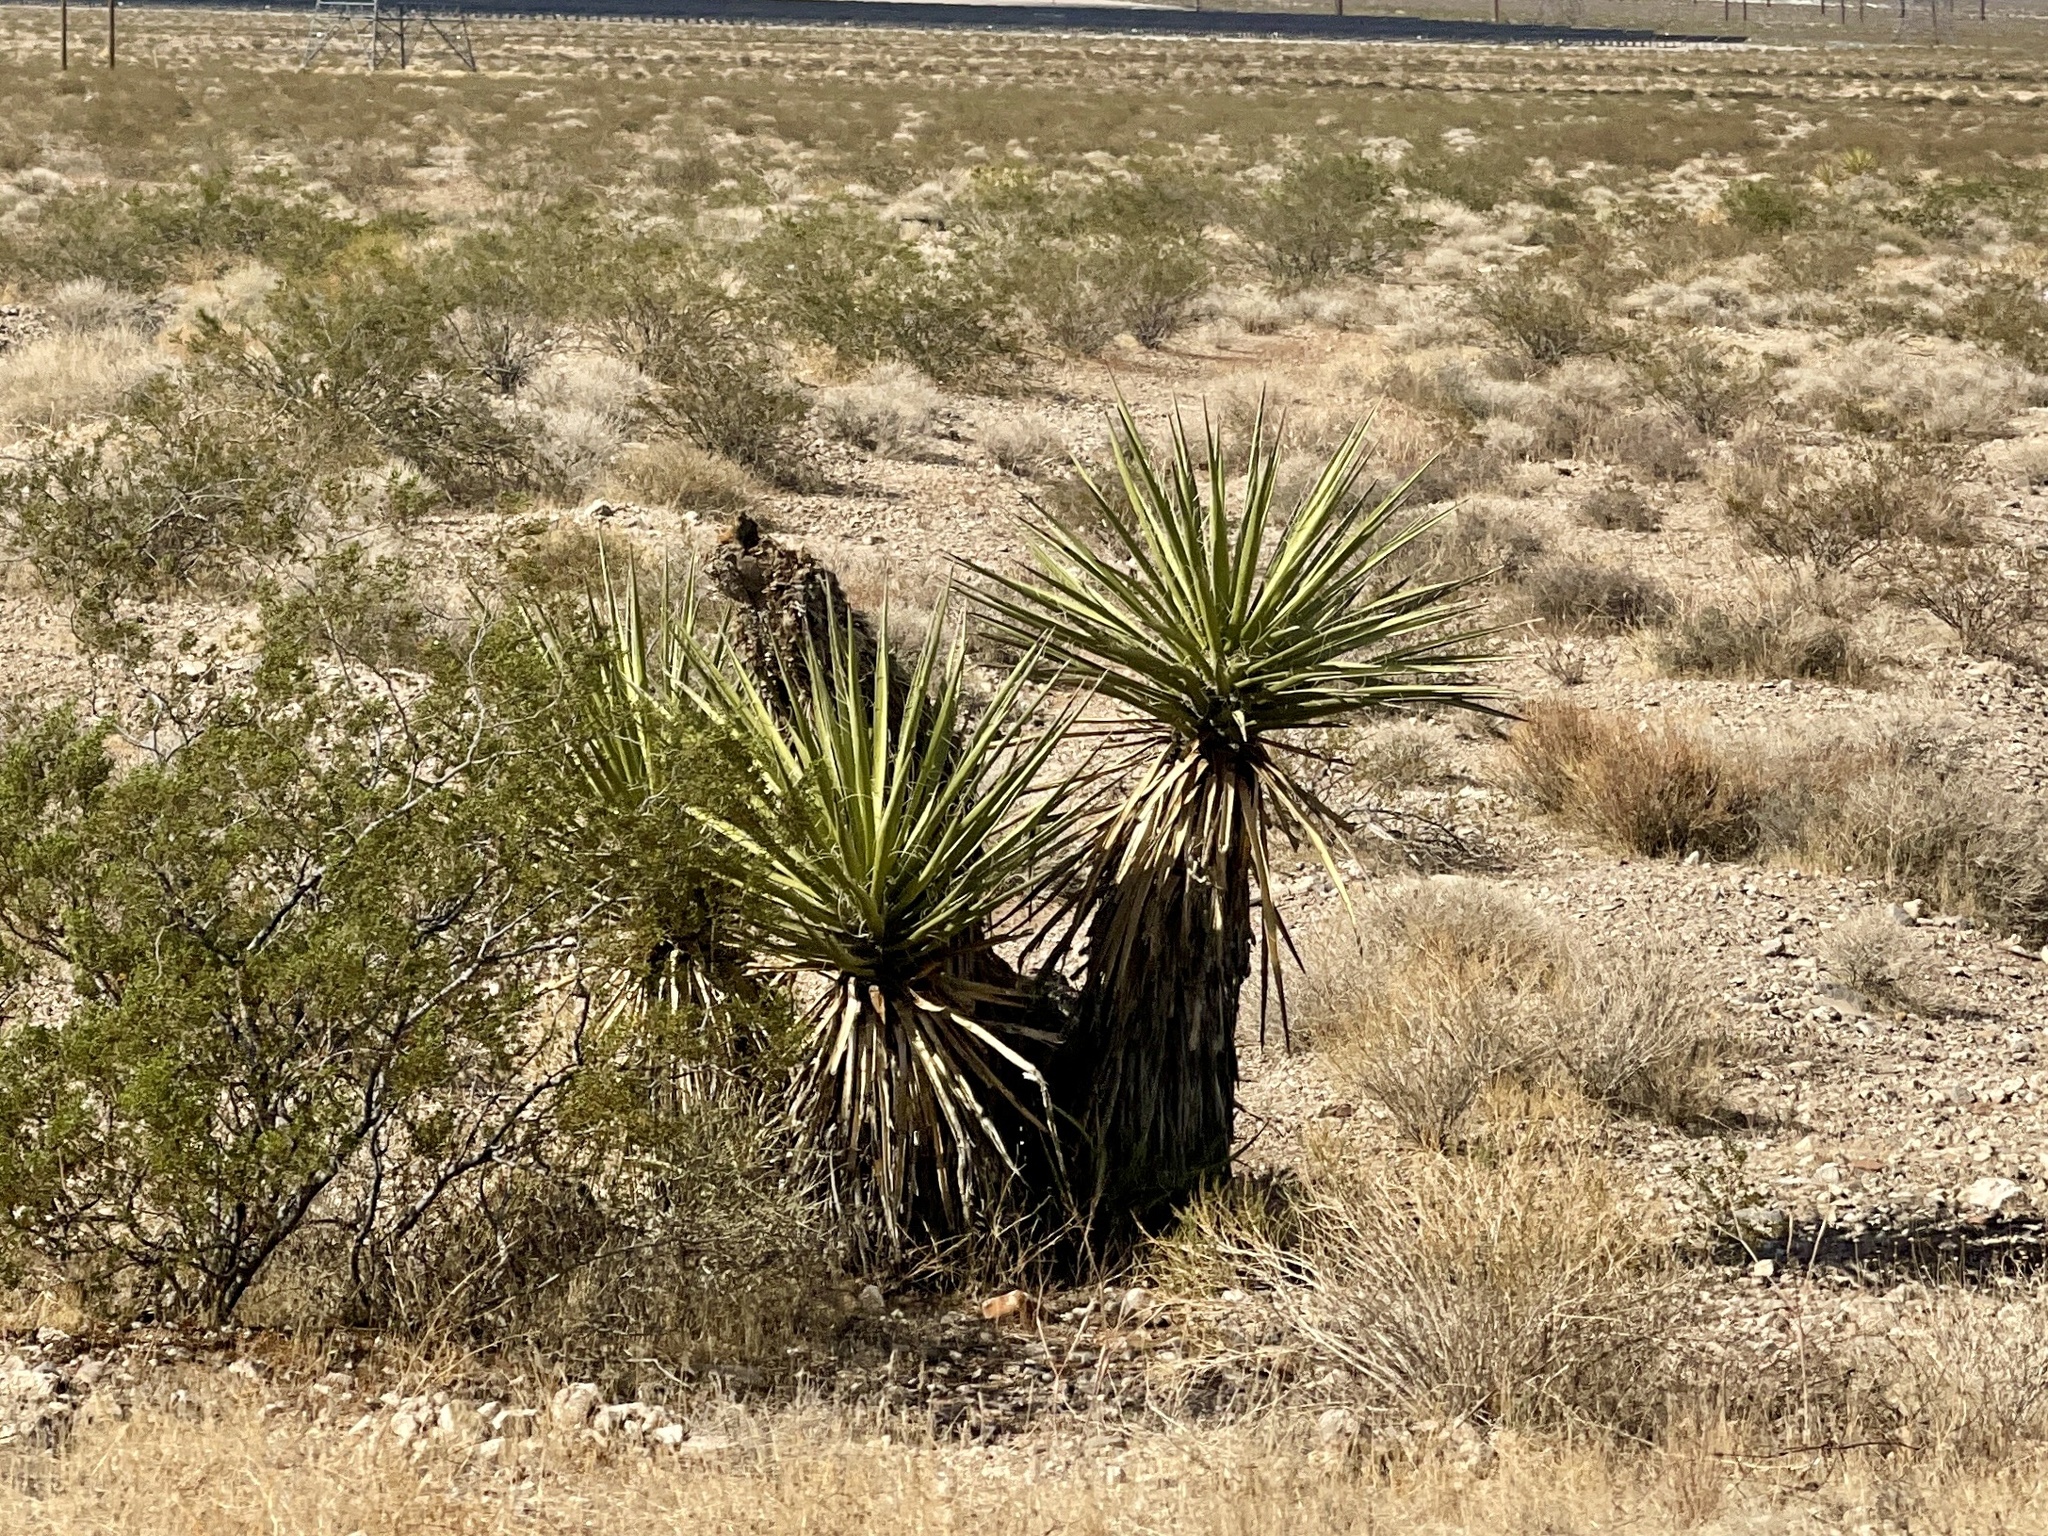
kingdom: Plantae
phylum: Tracheophyta
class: Liliopsida
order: Asparagales
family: Asparagaceae
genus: Yucca
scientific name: Yucca schidigera
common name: Mojave yucca
